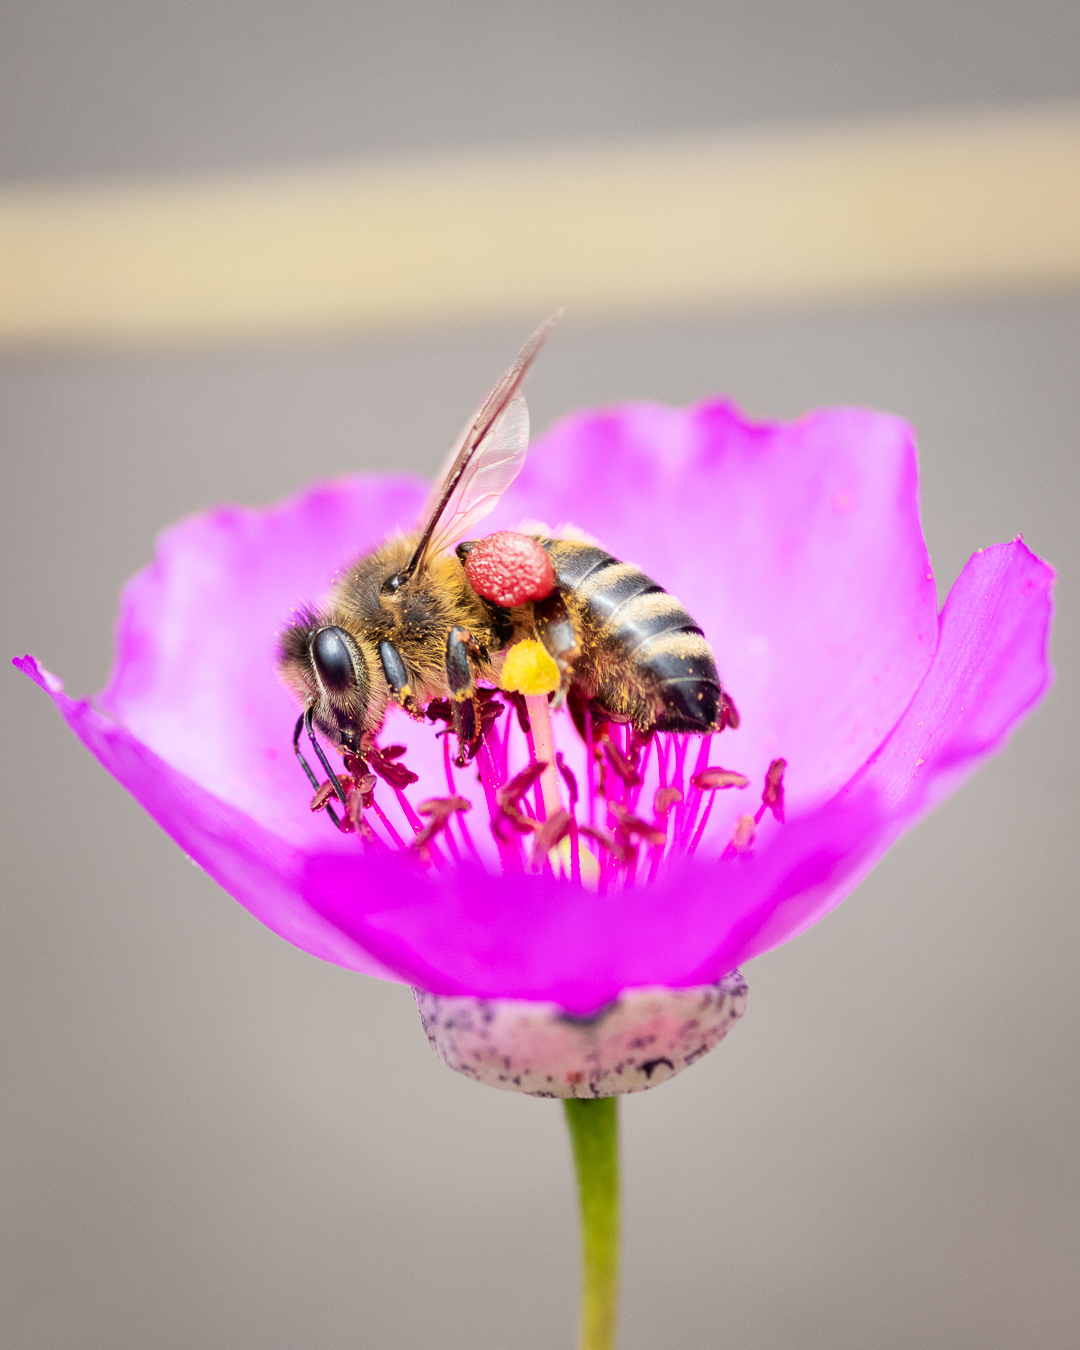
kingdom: Animalia
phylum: Arthropoda
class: Insecta
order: Hymenoptera
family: Apidae
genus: Apis
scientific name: Apis mellifera
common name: Honey bee
